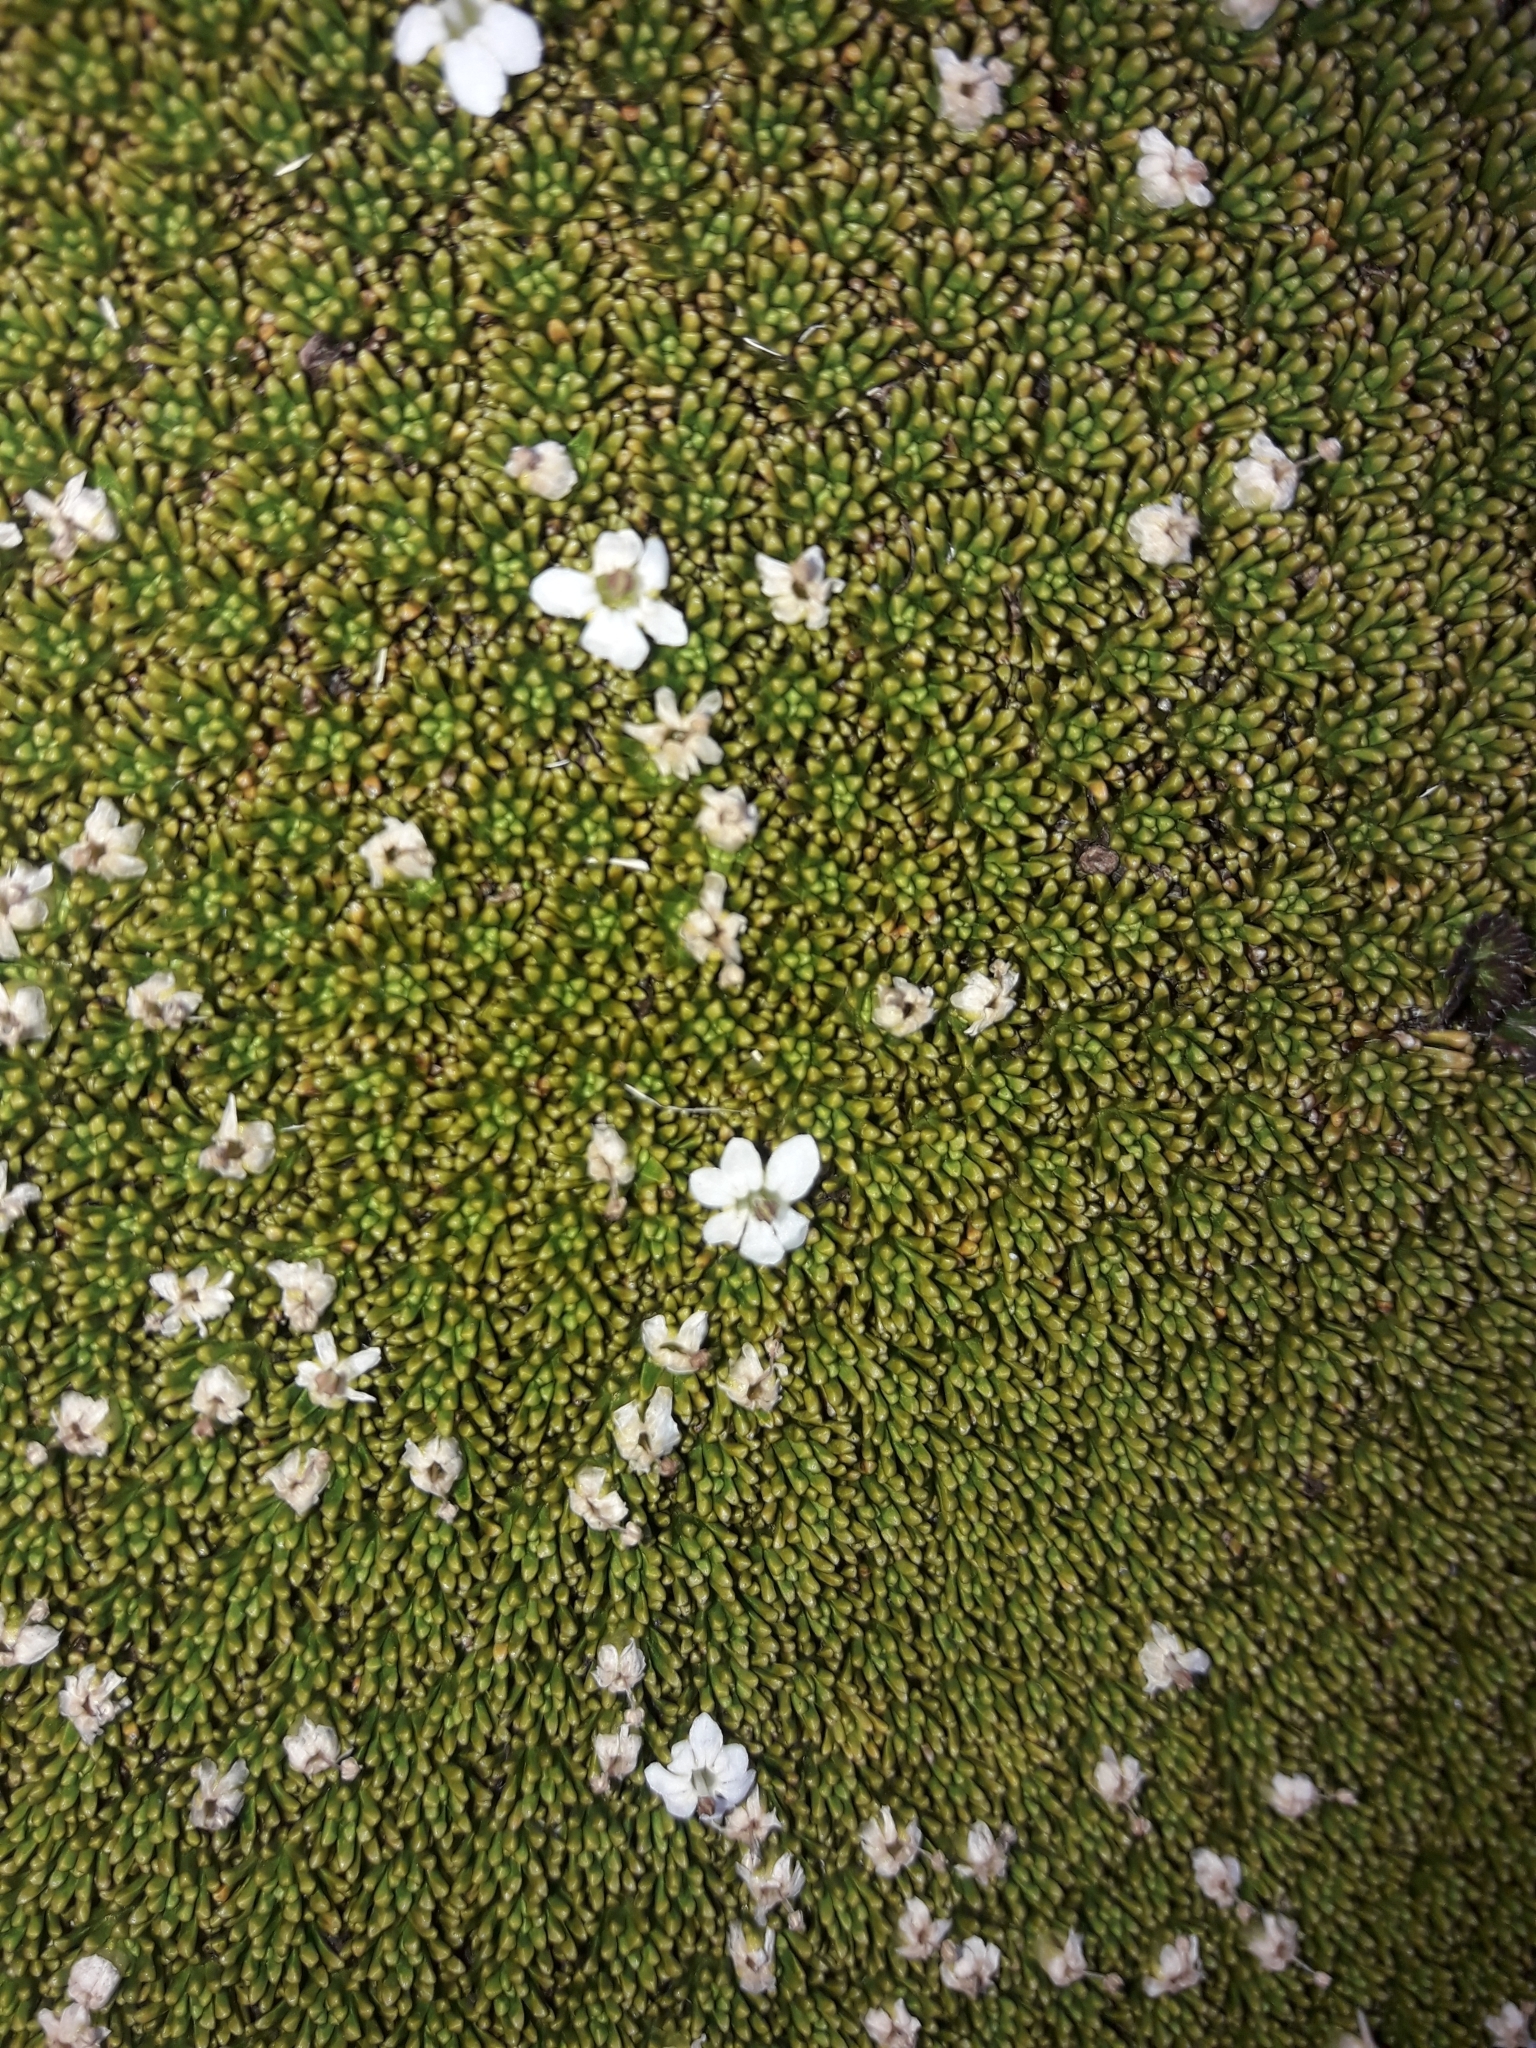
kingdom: Plantae
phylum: Tracheophyta
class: Magnoliopsida
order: Asterales
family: Stylidiaceae
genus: Phyllachne
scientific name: Phyllachne colensoi
